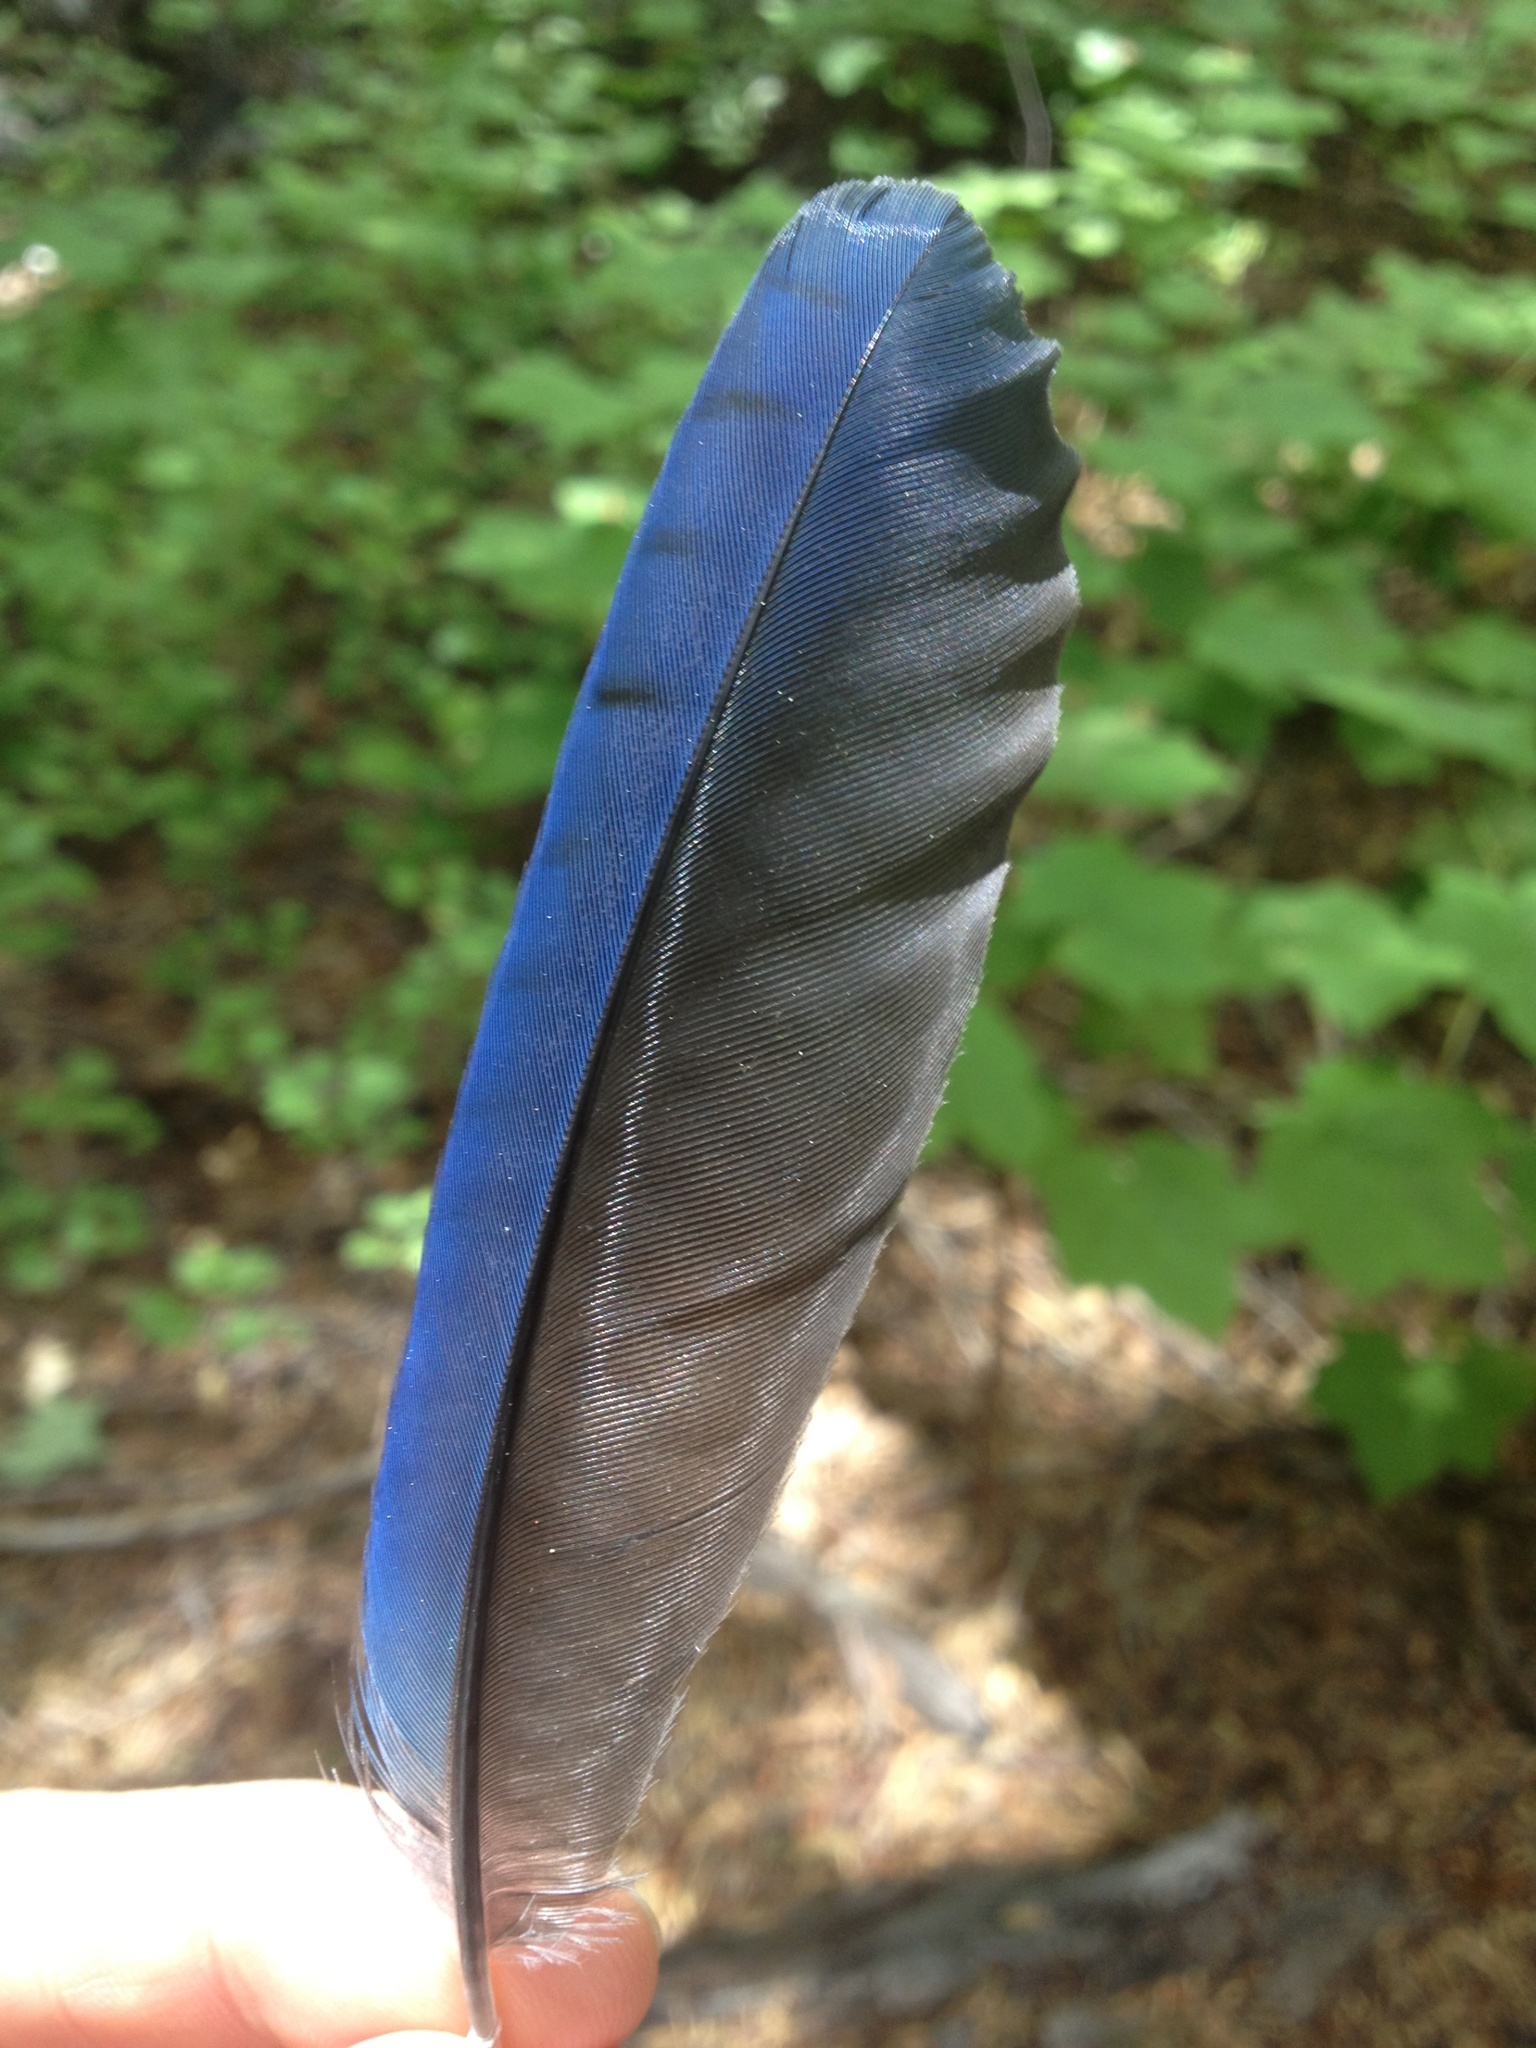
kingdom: Animalia
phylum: Chordata
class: Aves
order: Passeriformes
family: Corvidae
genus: Cyanocitta
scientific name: Cyanocitta stelleri
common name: Steller's jay
